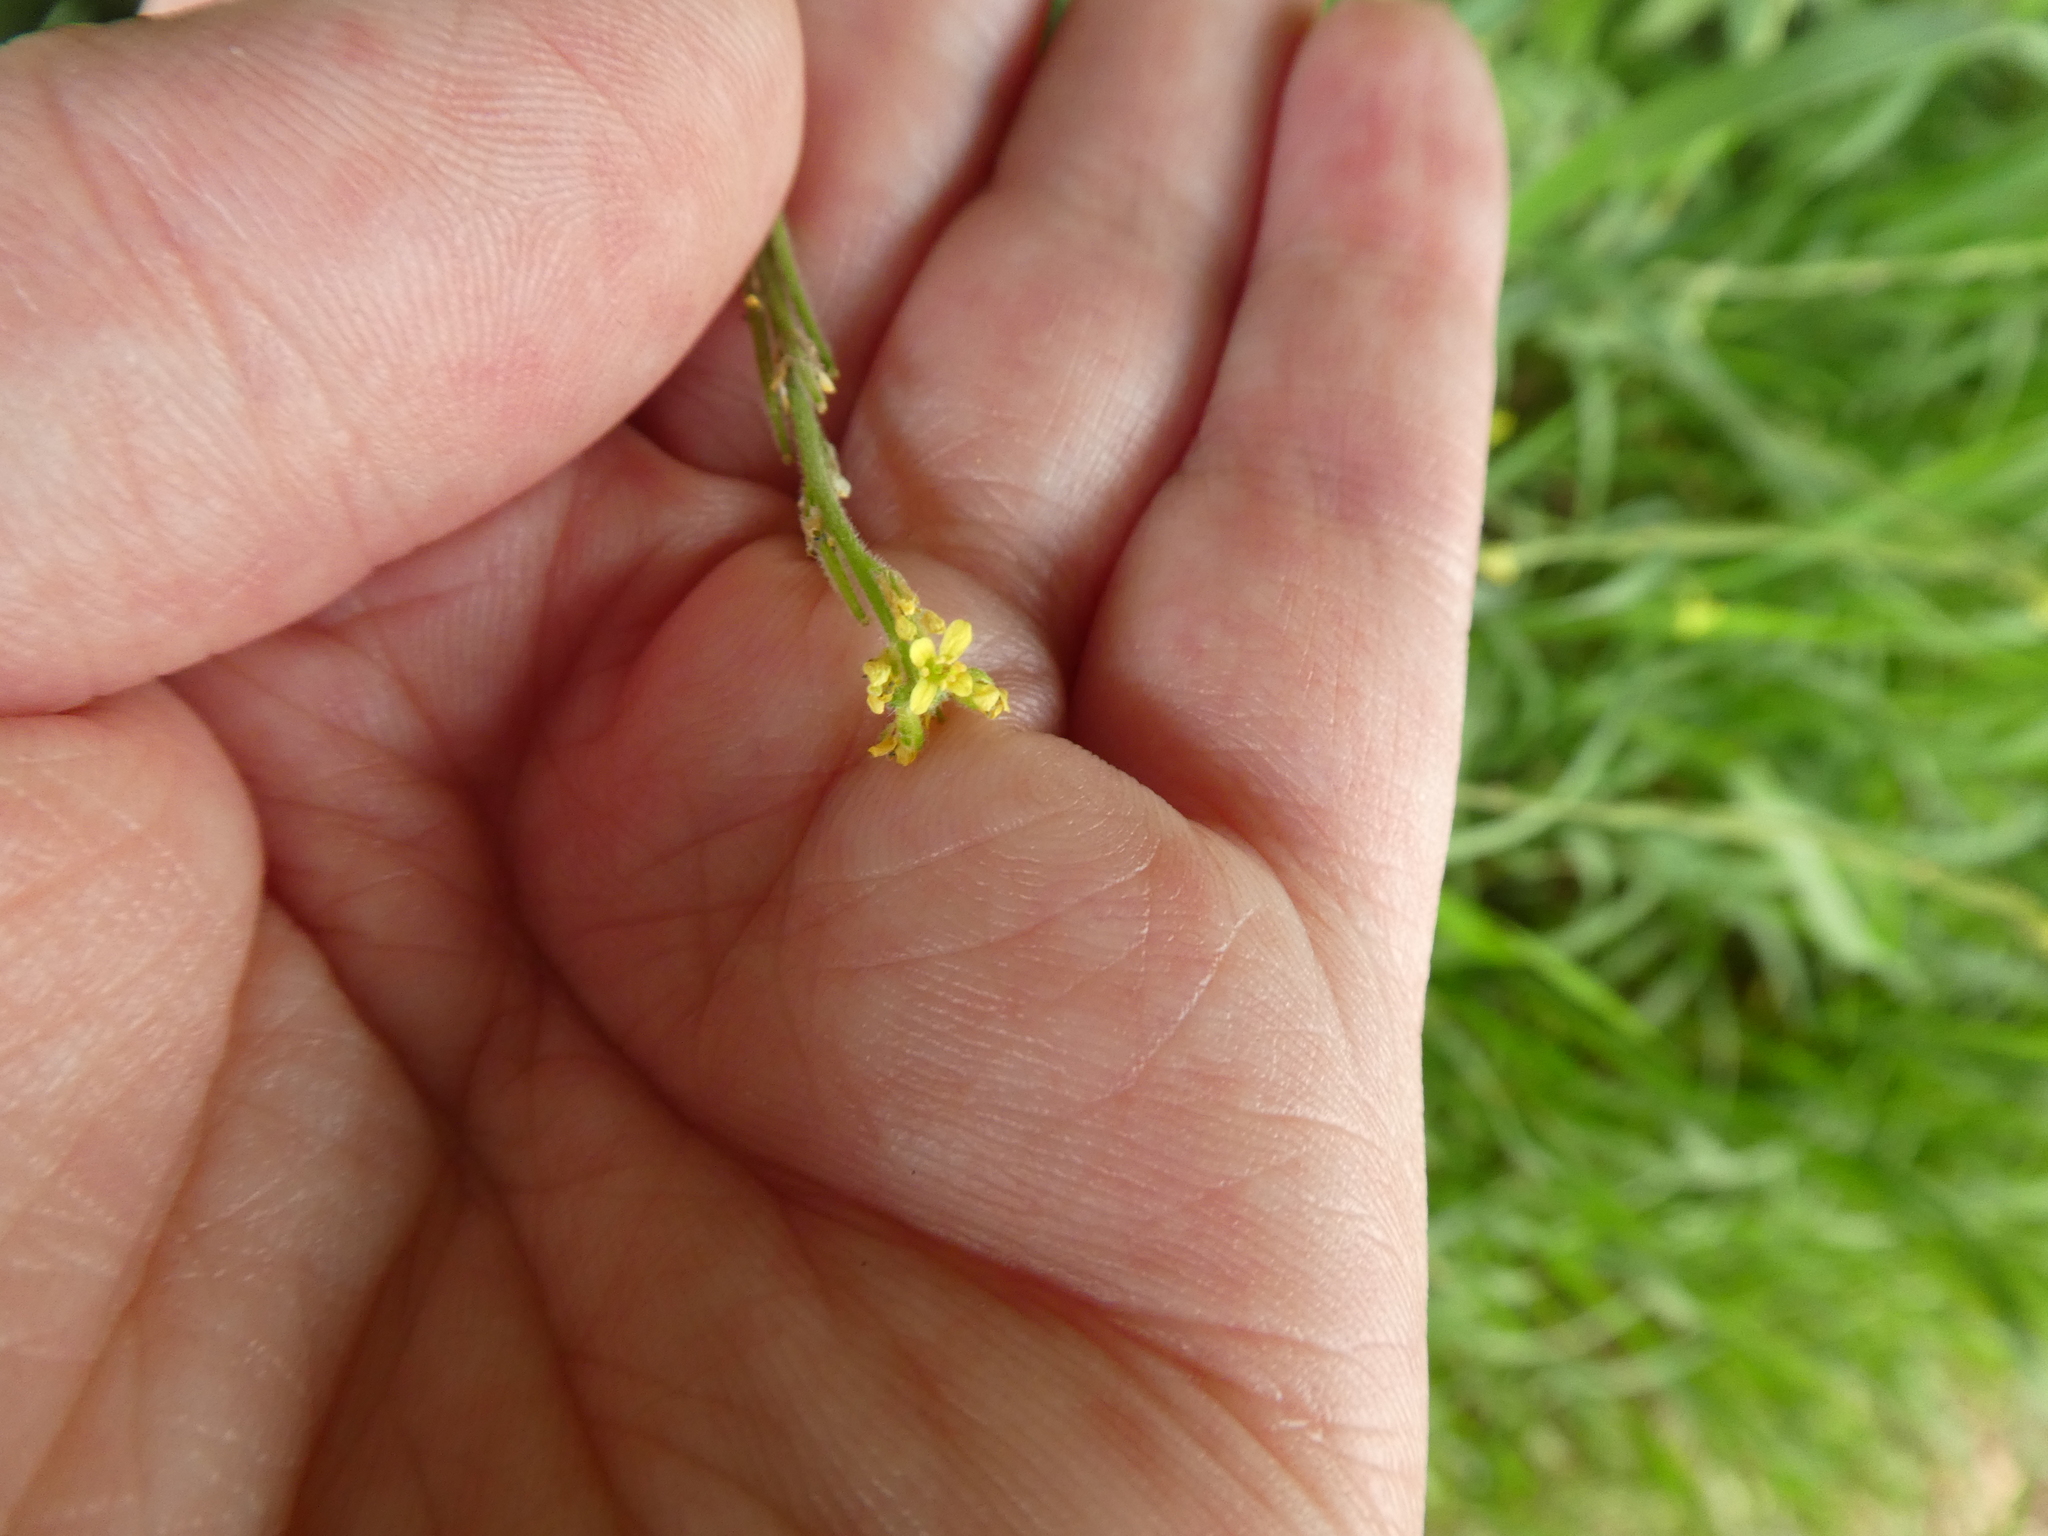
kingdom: Plantae
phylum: Tracheophyta
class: Magnoliopsida
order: Brassicales
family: Brassicaceae
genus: Sisymbrium
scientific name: Sisymbrium officinale
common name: Hedge mustard
